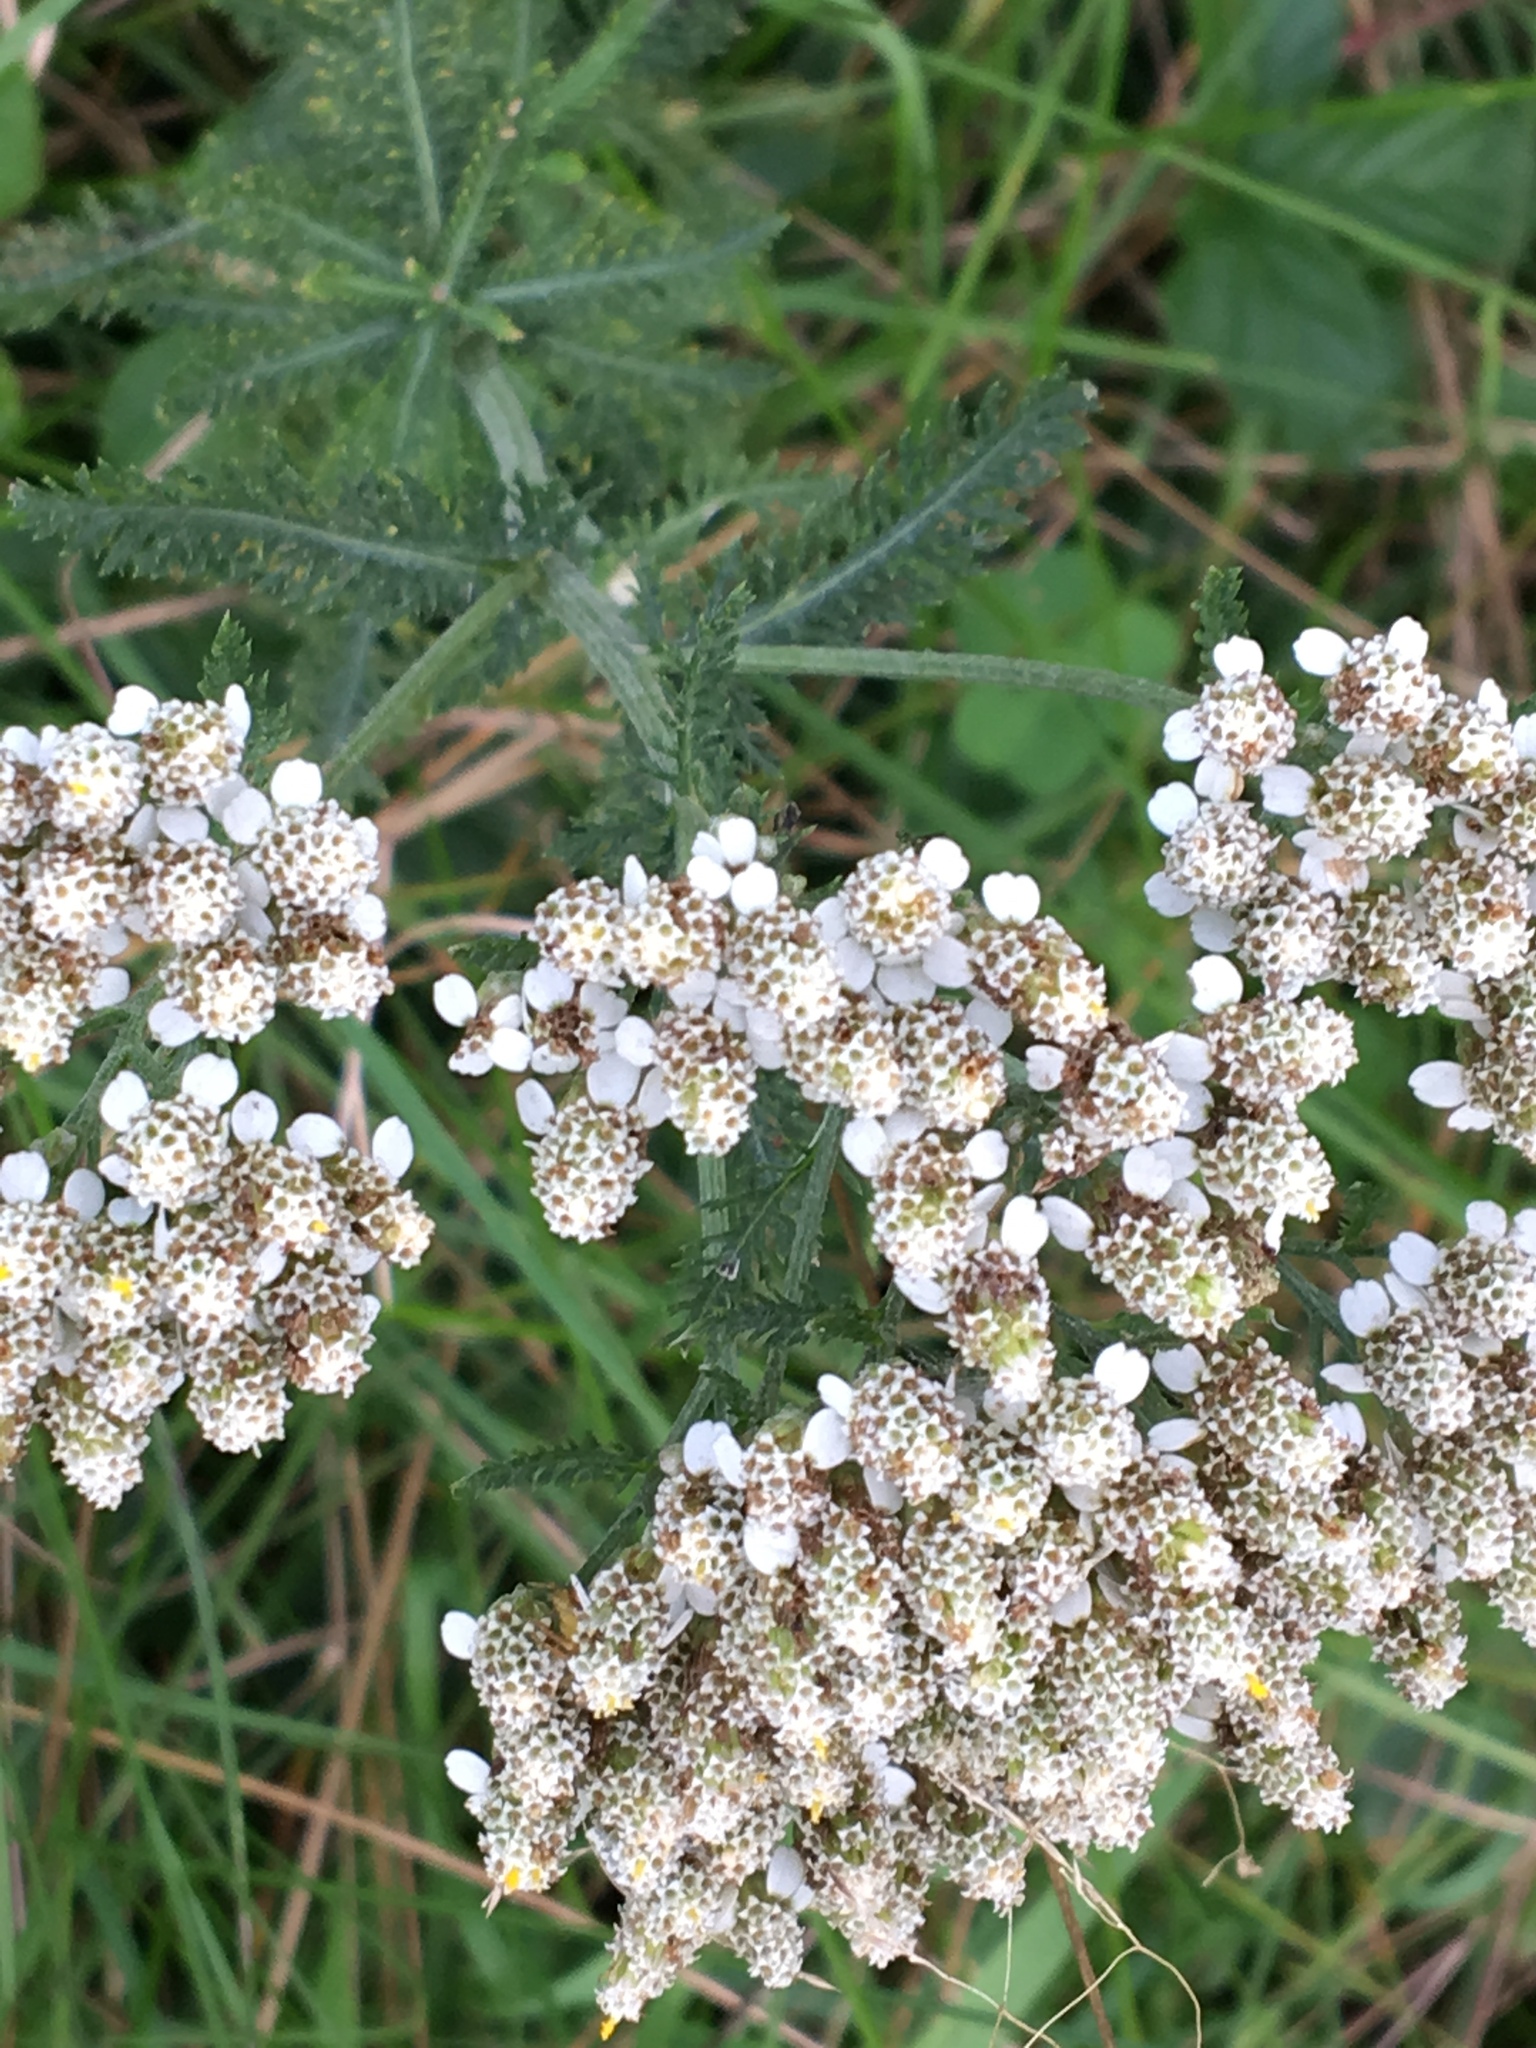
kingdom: Plantae
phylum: Tracheophyta
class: Magnoliopsida
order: Asterales
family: Asteraceae
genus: Achillea
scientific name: Achillea millefolium
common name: Yarrow
